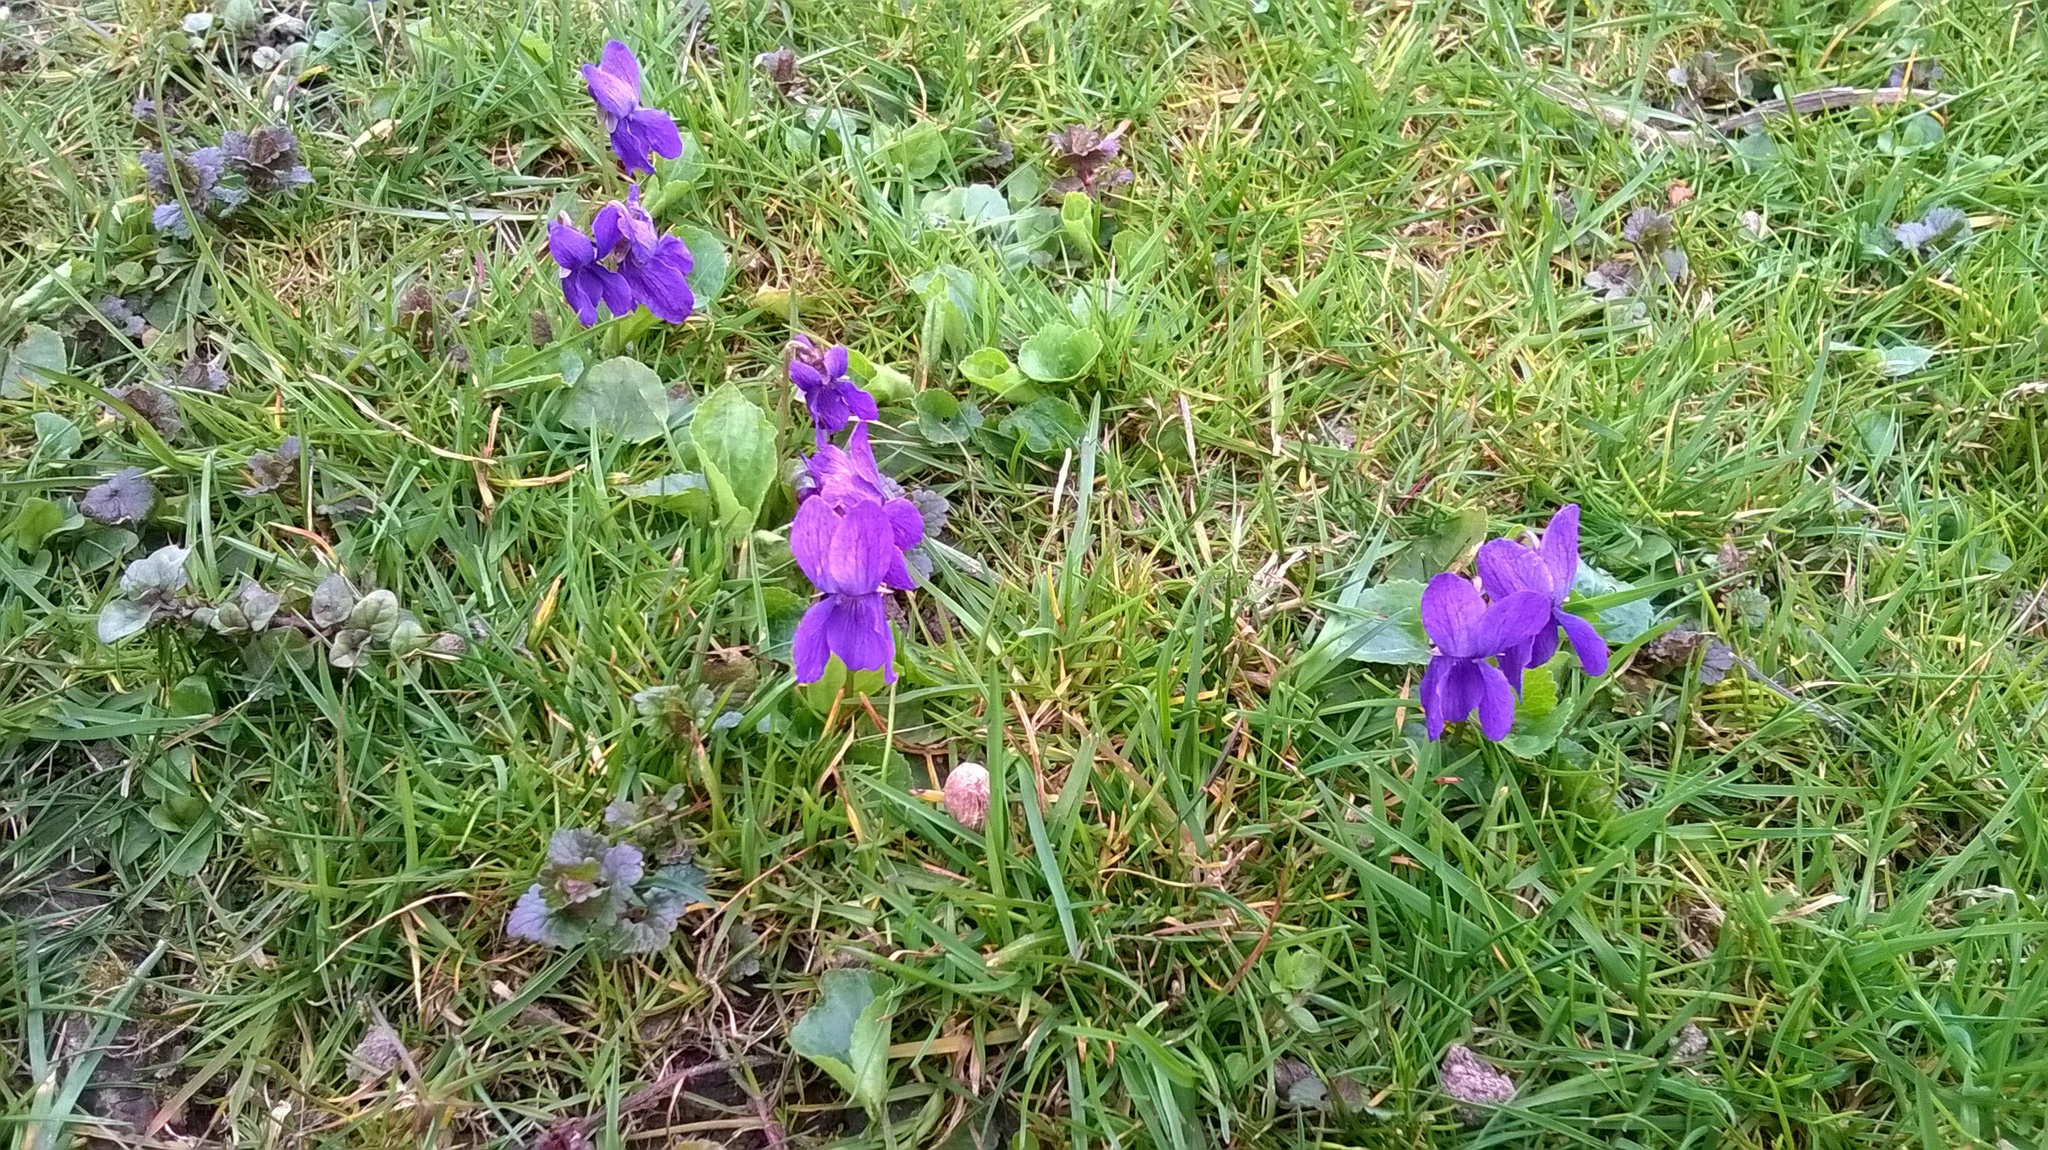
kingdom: Plantae
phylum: Tracheophyta
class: Magnoliopsida
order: Malpighiales
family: Violaceae
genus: Viola
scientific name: Viola odorata
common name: Sweet violet
